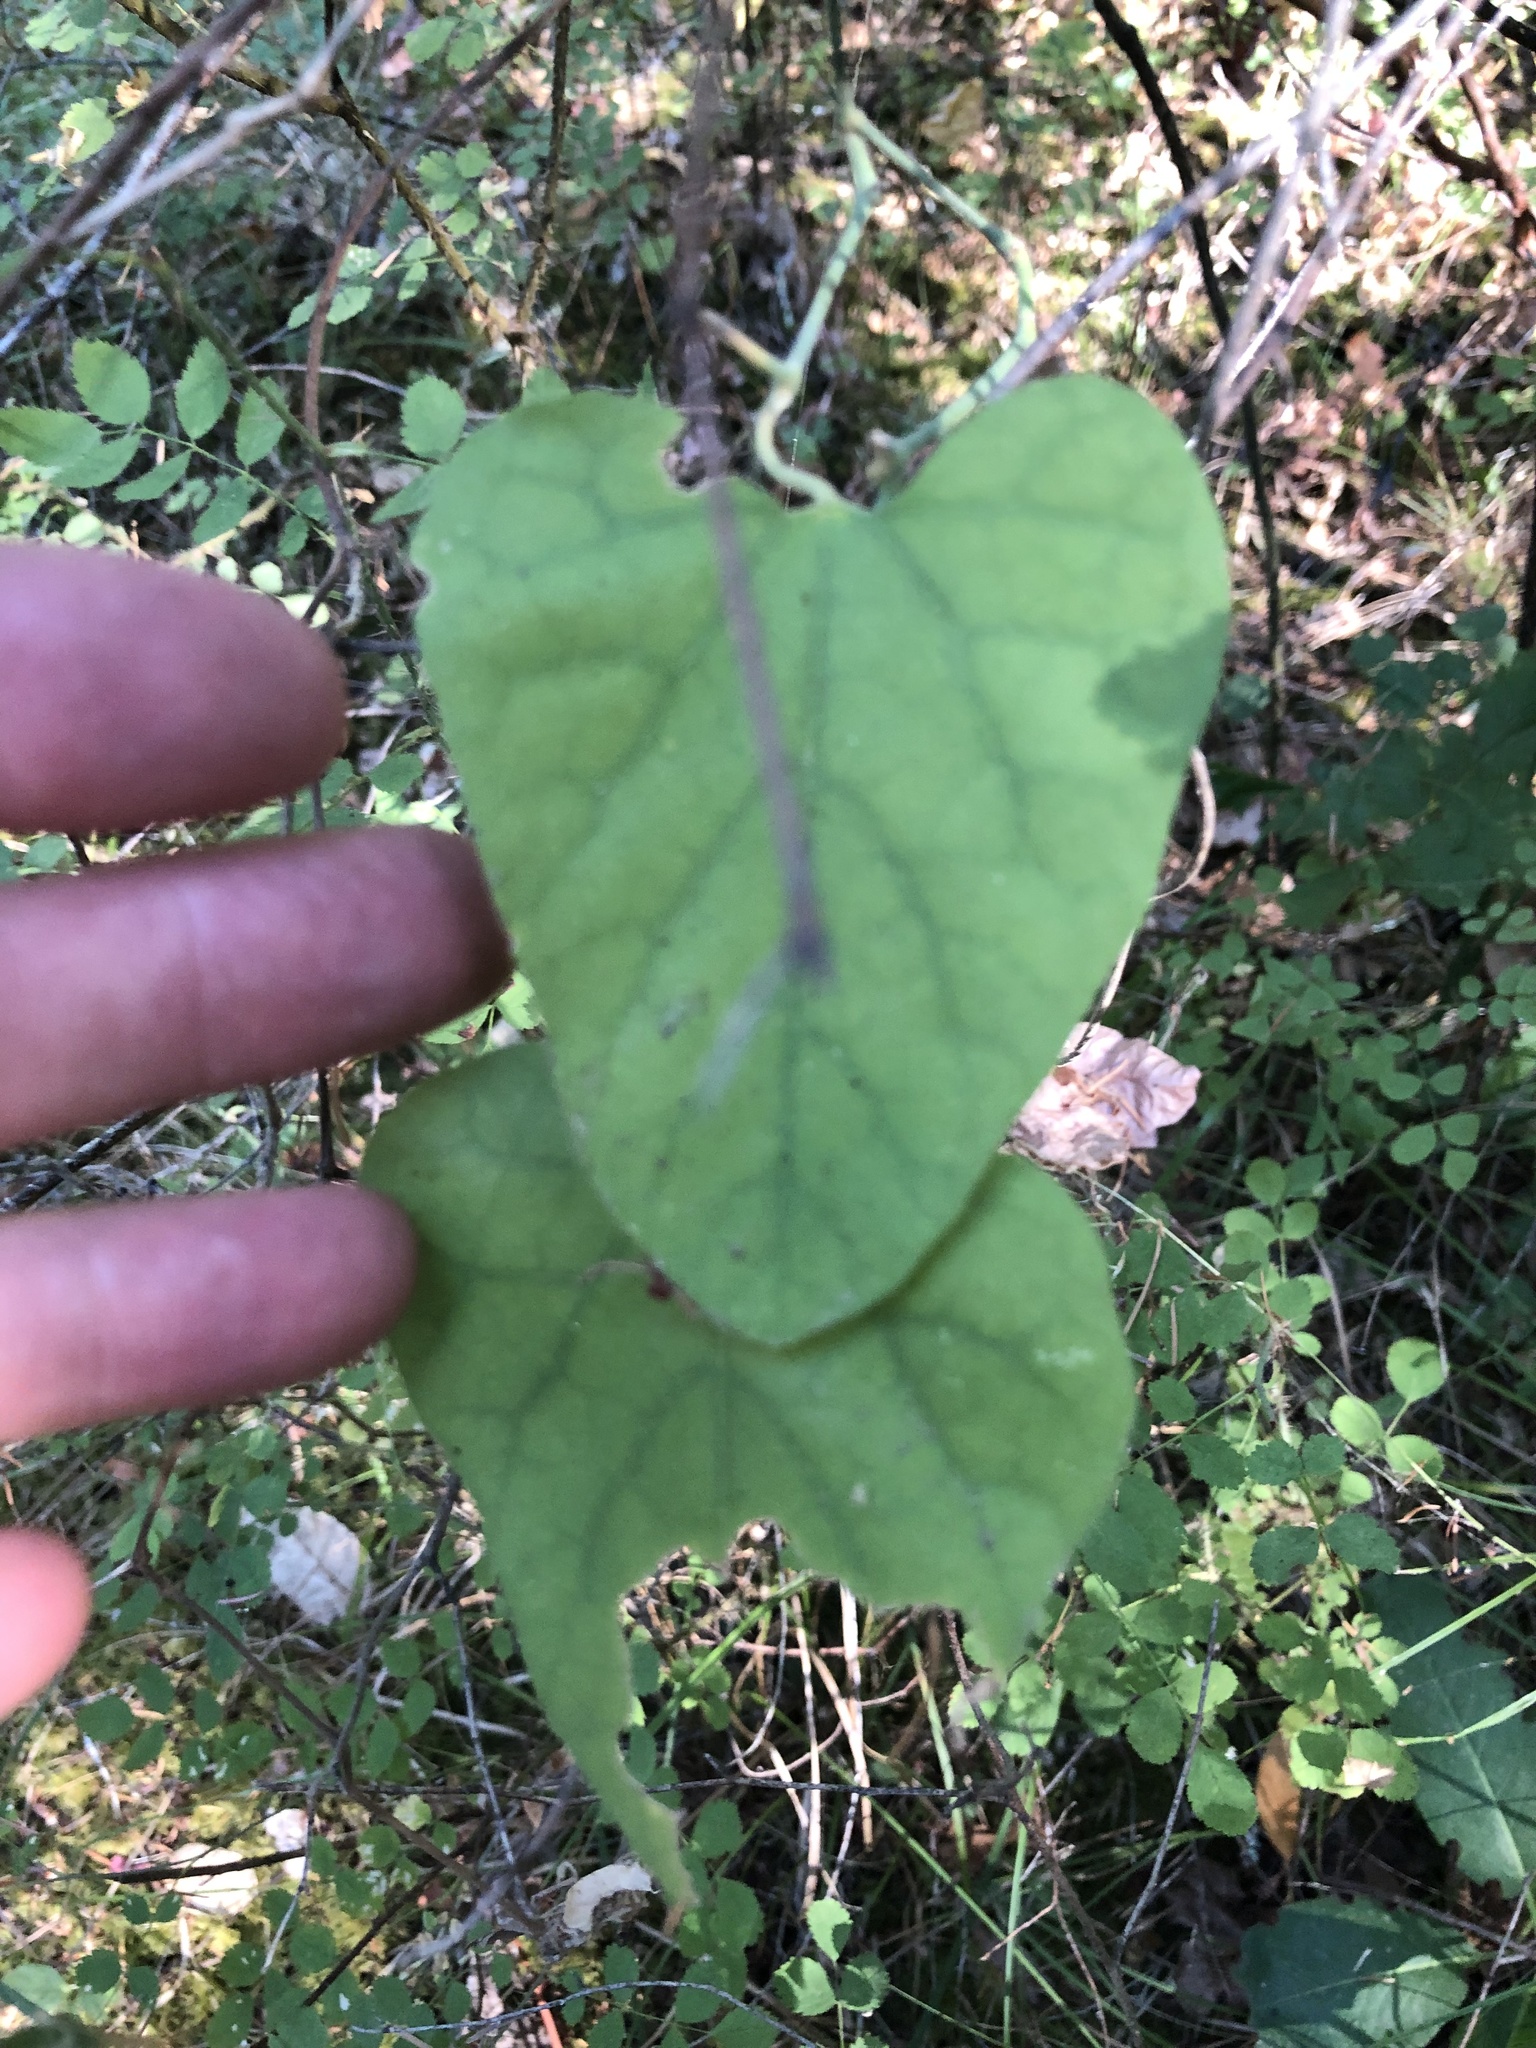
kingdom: Plantae
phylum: Tracheophyta
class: Magnoliopsida
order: Piperales
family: Aristolochiaceae
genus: Isotrema
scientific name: Isotrema californicum
